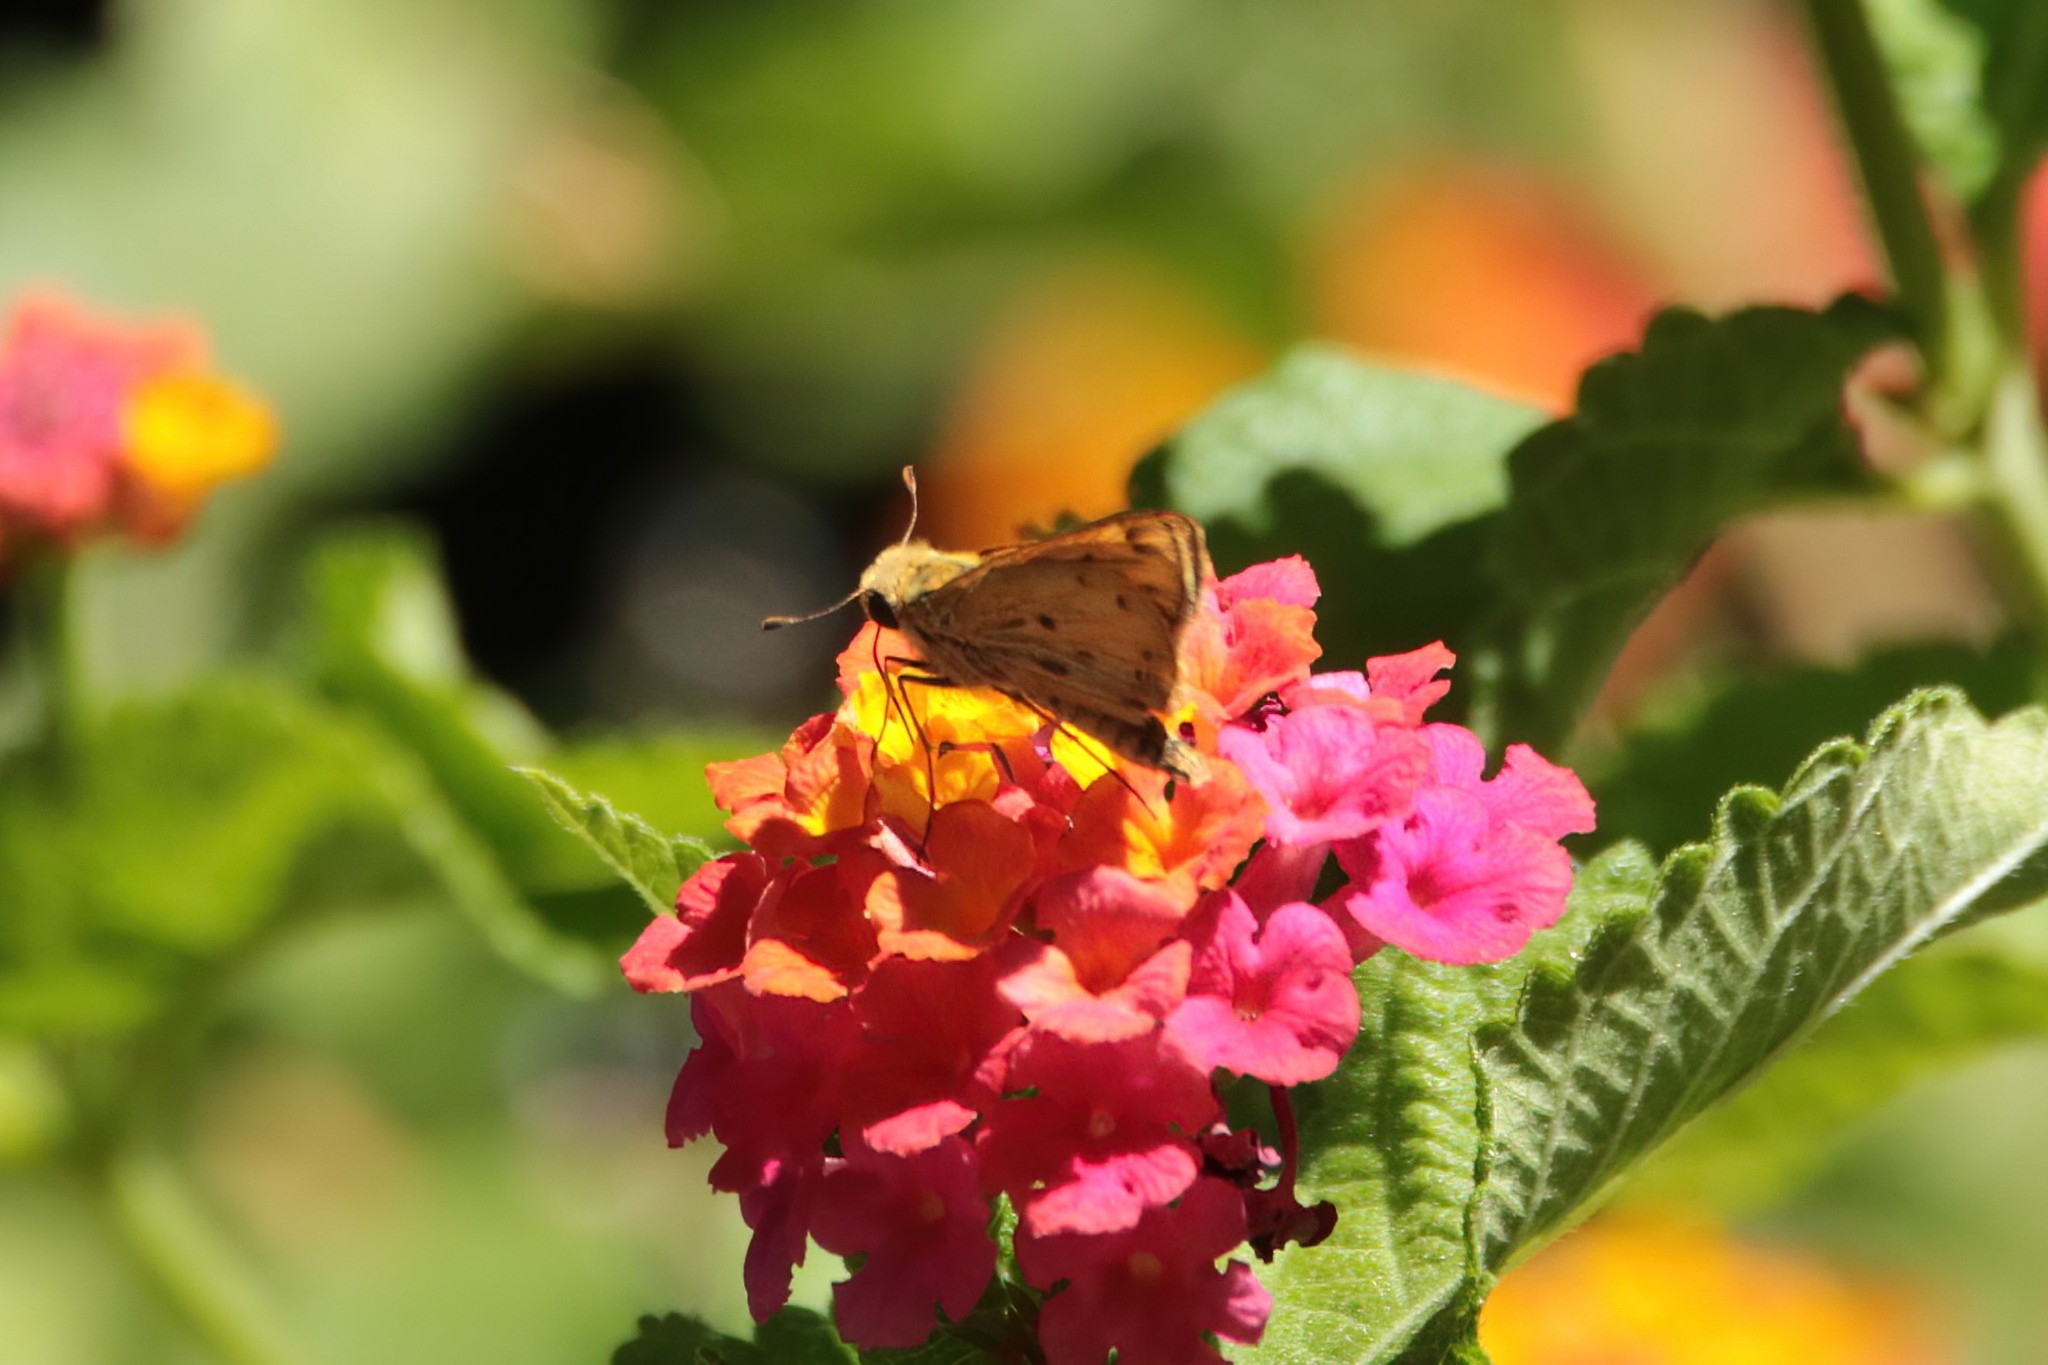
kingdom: Animalia
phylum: Arthropoda
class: Insecta
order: Lepidoptera
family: Hesperiidae
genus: Hylephila
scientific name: Hylephila phyleus
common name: Fiery skipper
